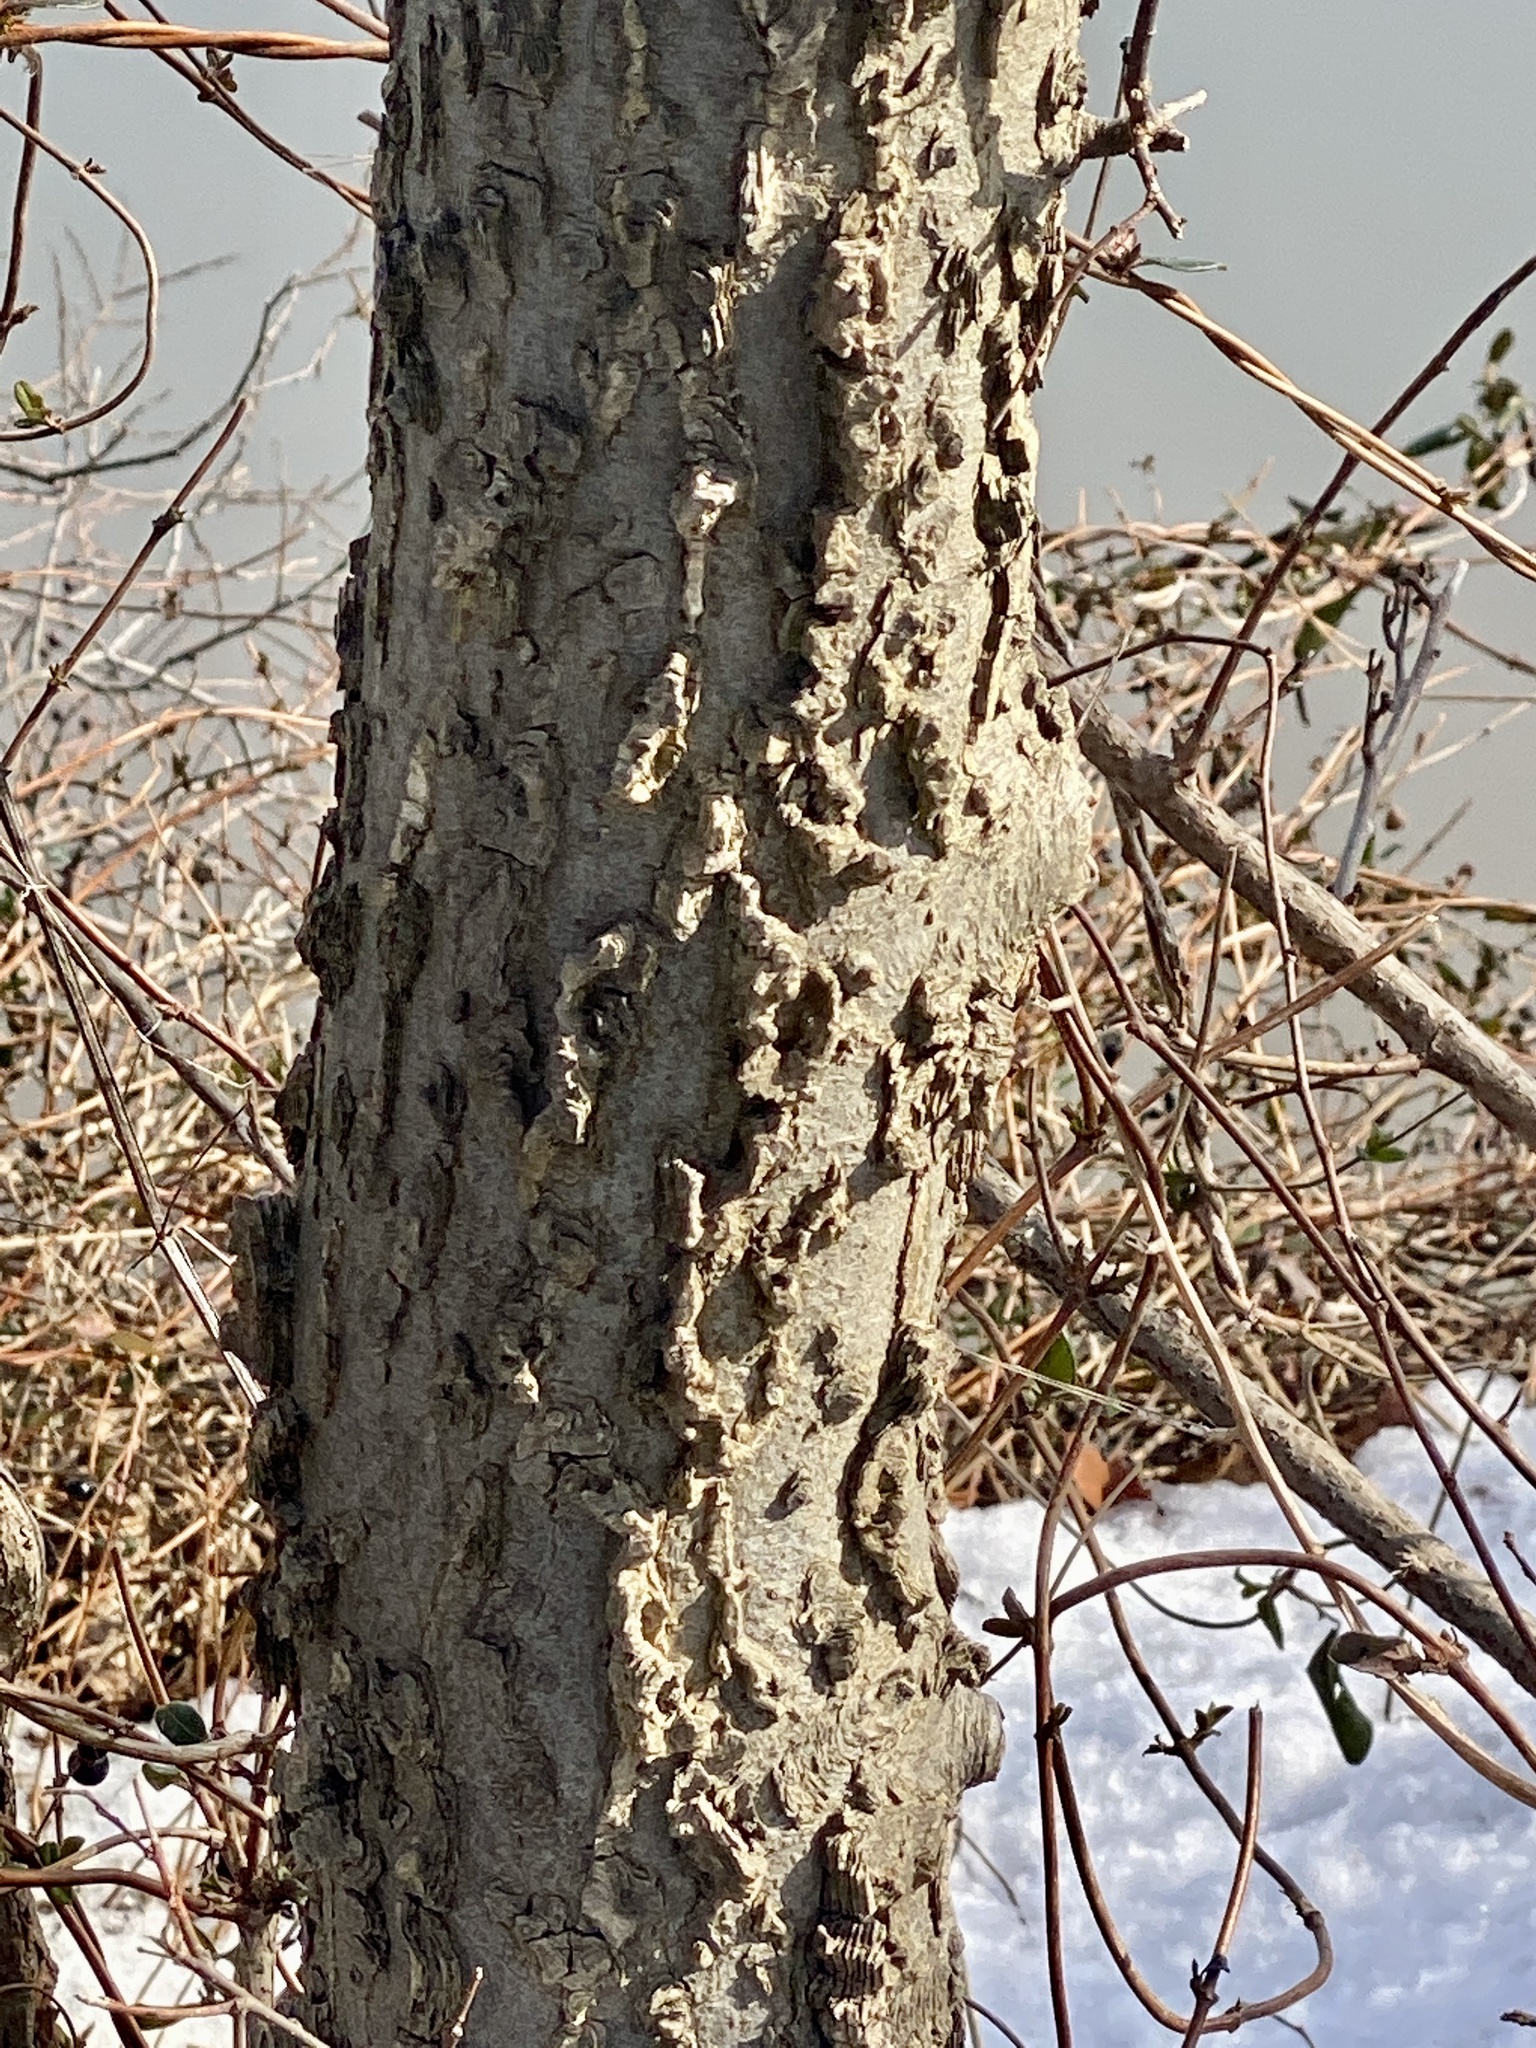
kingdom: Plantae
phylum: Tracheophyta
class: Magnoliopsida
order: Rosales
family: Cannabaceae
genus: Celtis
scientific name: Celtis occidentalis
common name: Common hackberry
